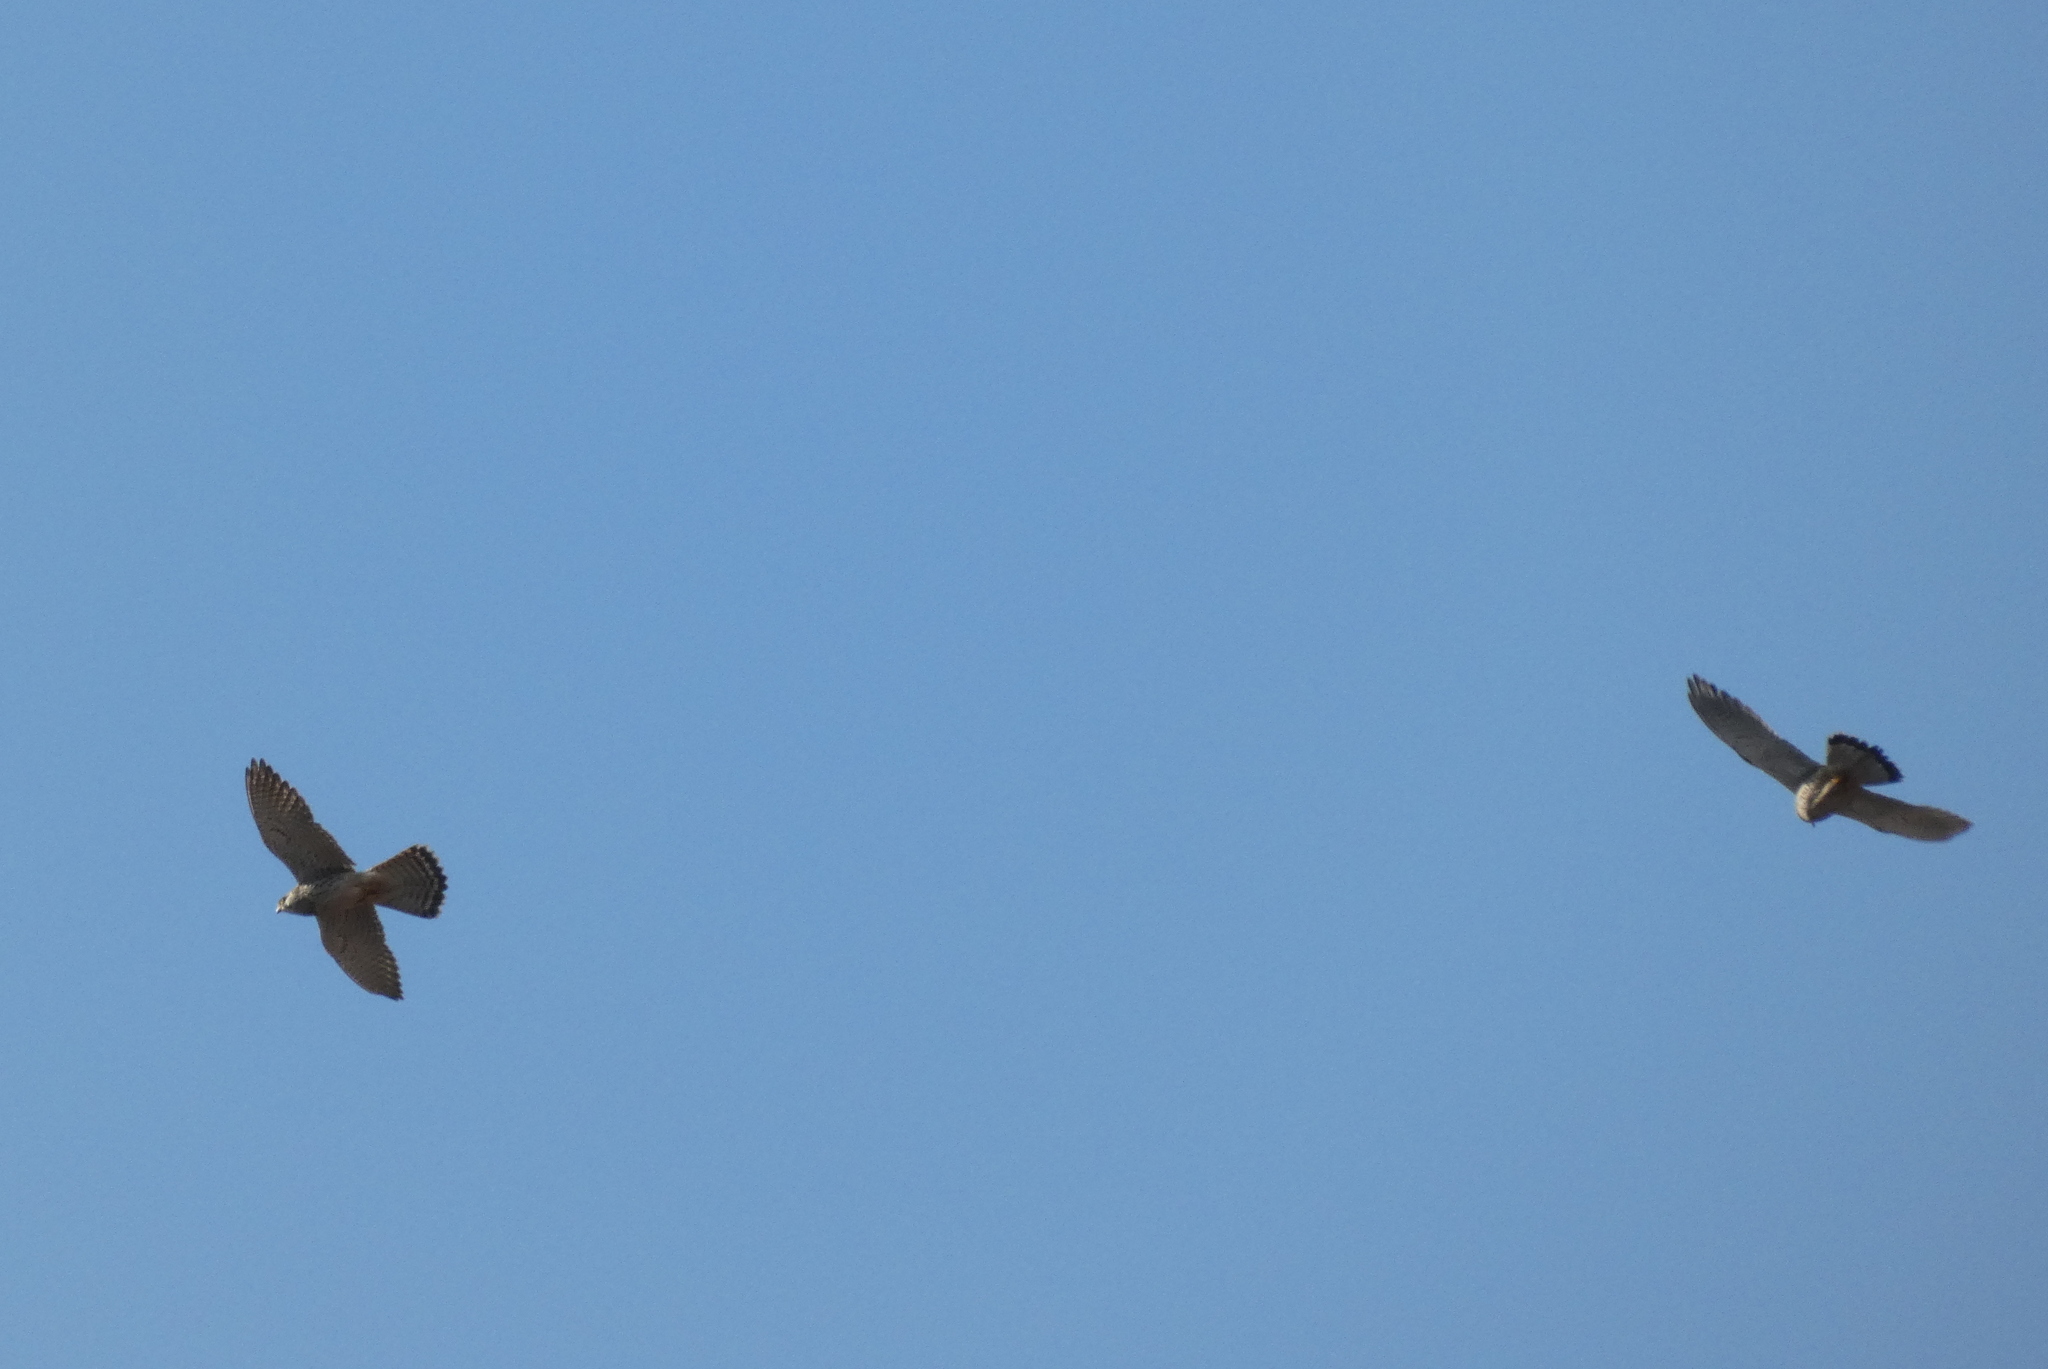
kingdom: Animalia
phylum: Chordata
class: Aves
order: Falconiformes
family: Falconidae
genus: Falco
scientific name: Falco tinnunculus
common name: Common kestrel
